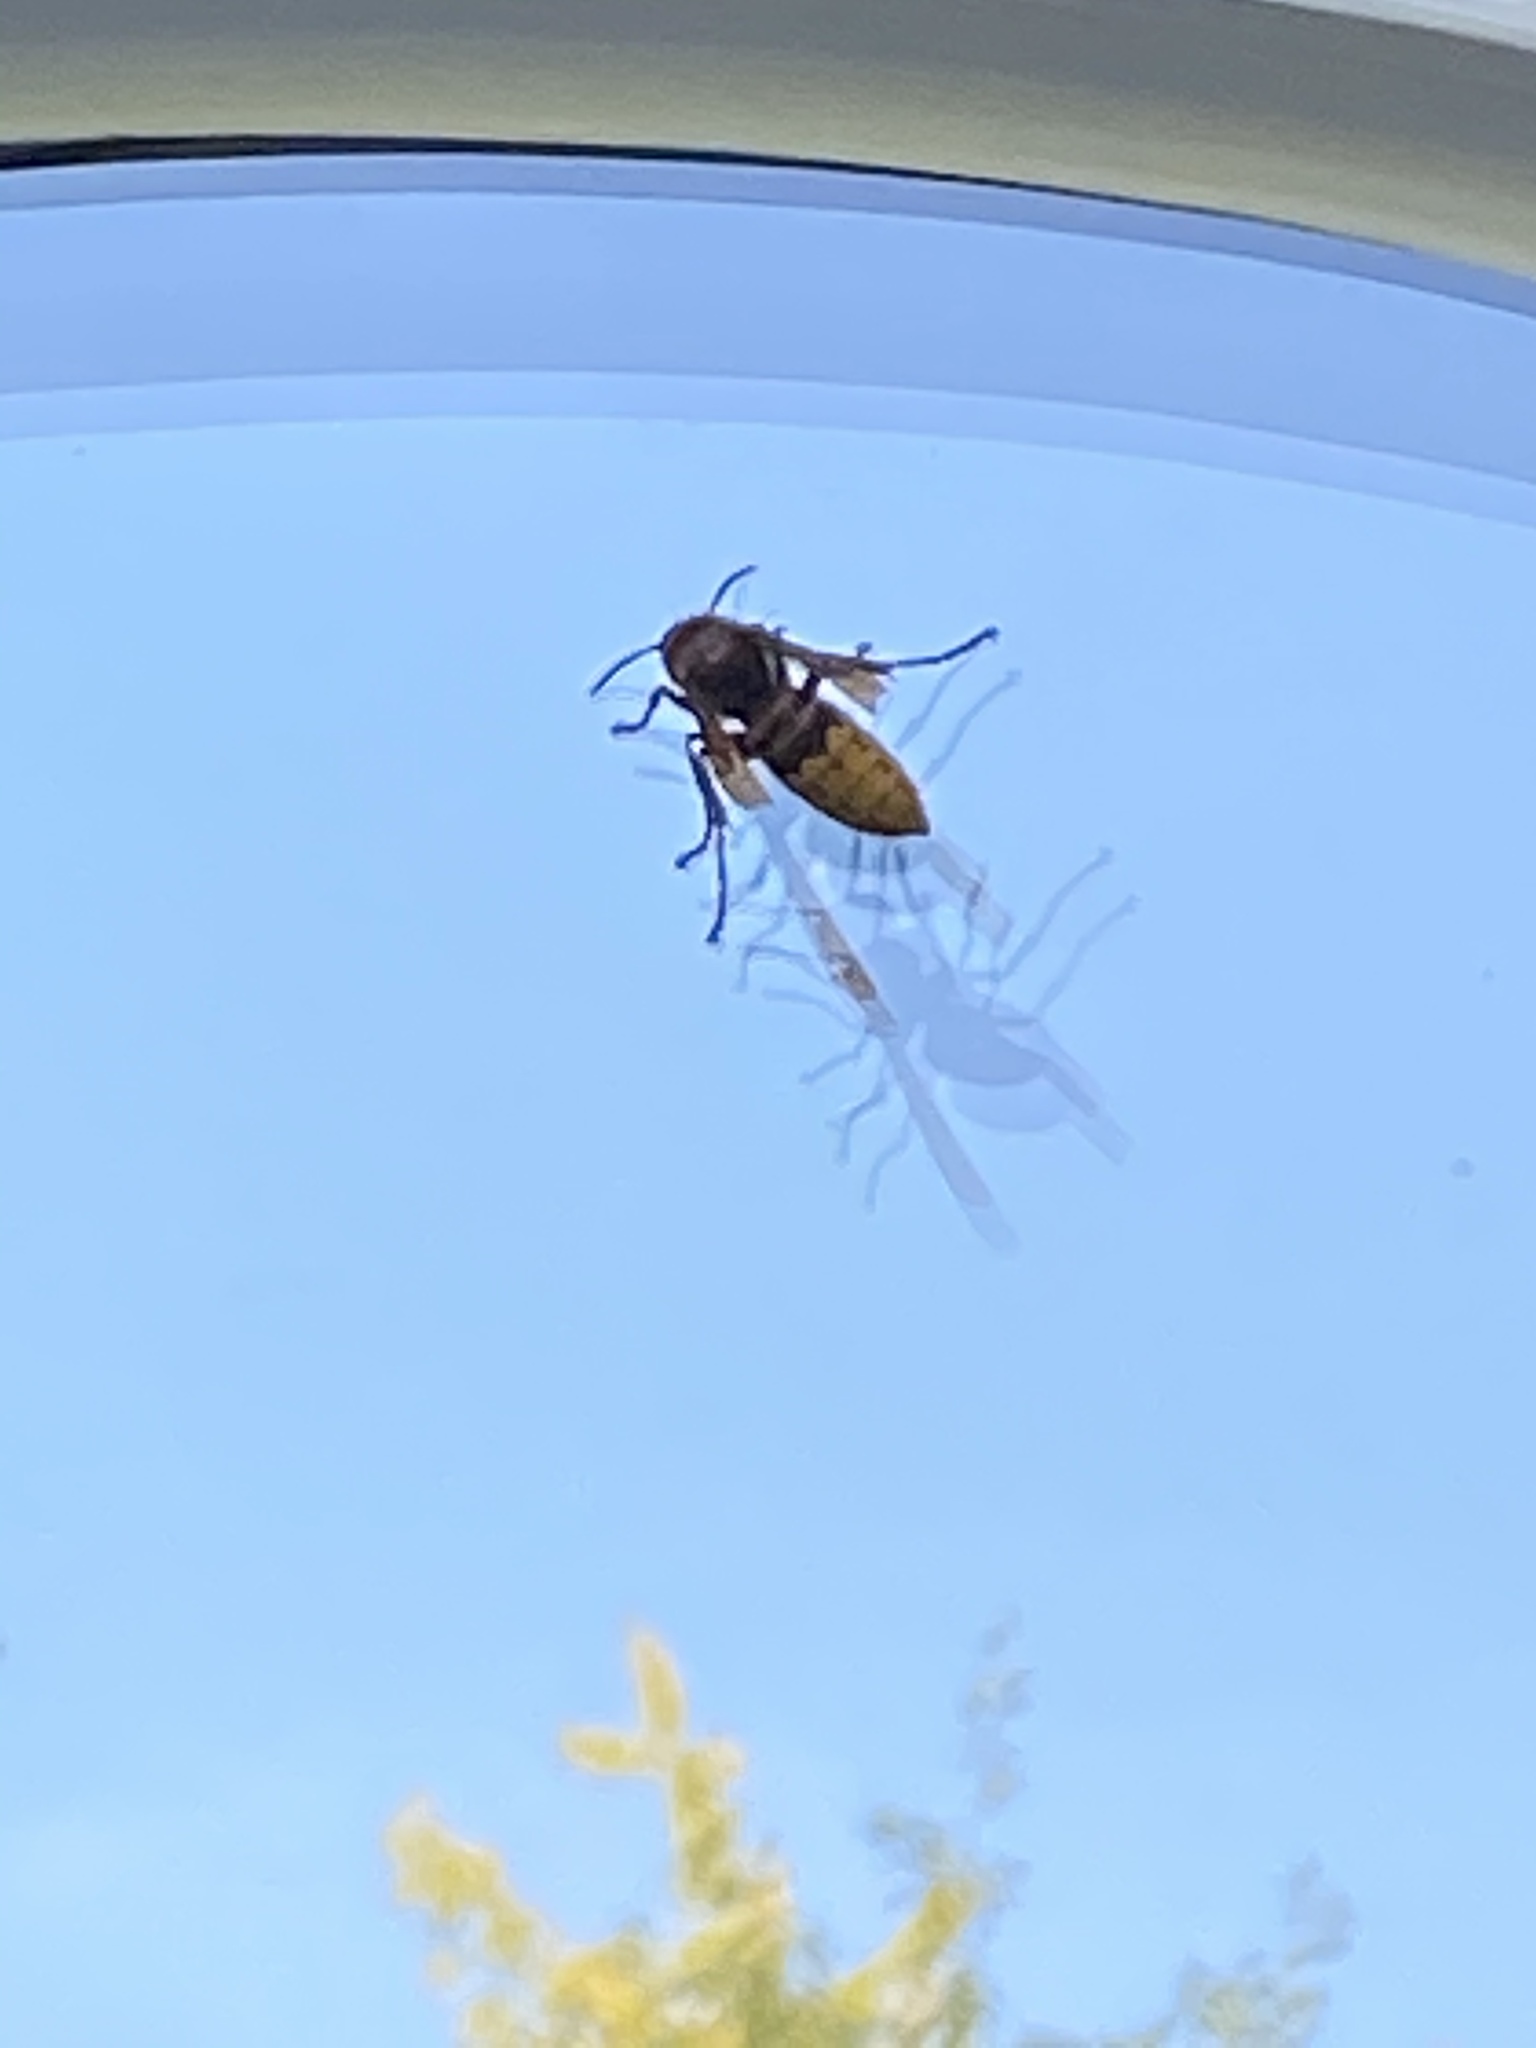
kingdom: Animalia
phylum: Arthropoda
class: Insecta
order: Hymenoptera
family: Vespidae
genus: Vespa
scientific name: Vespa crabro
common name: Hornet
